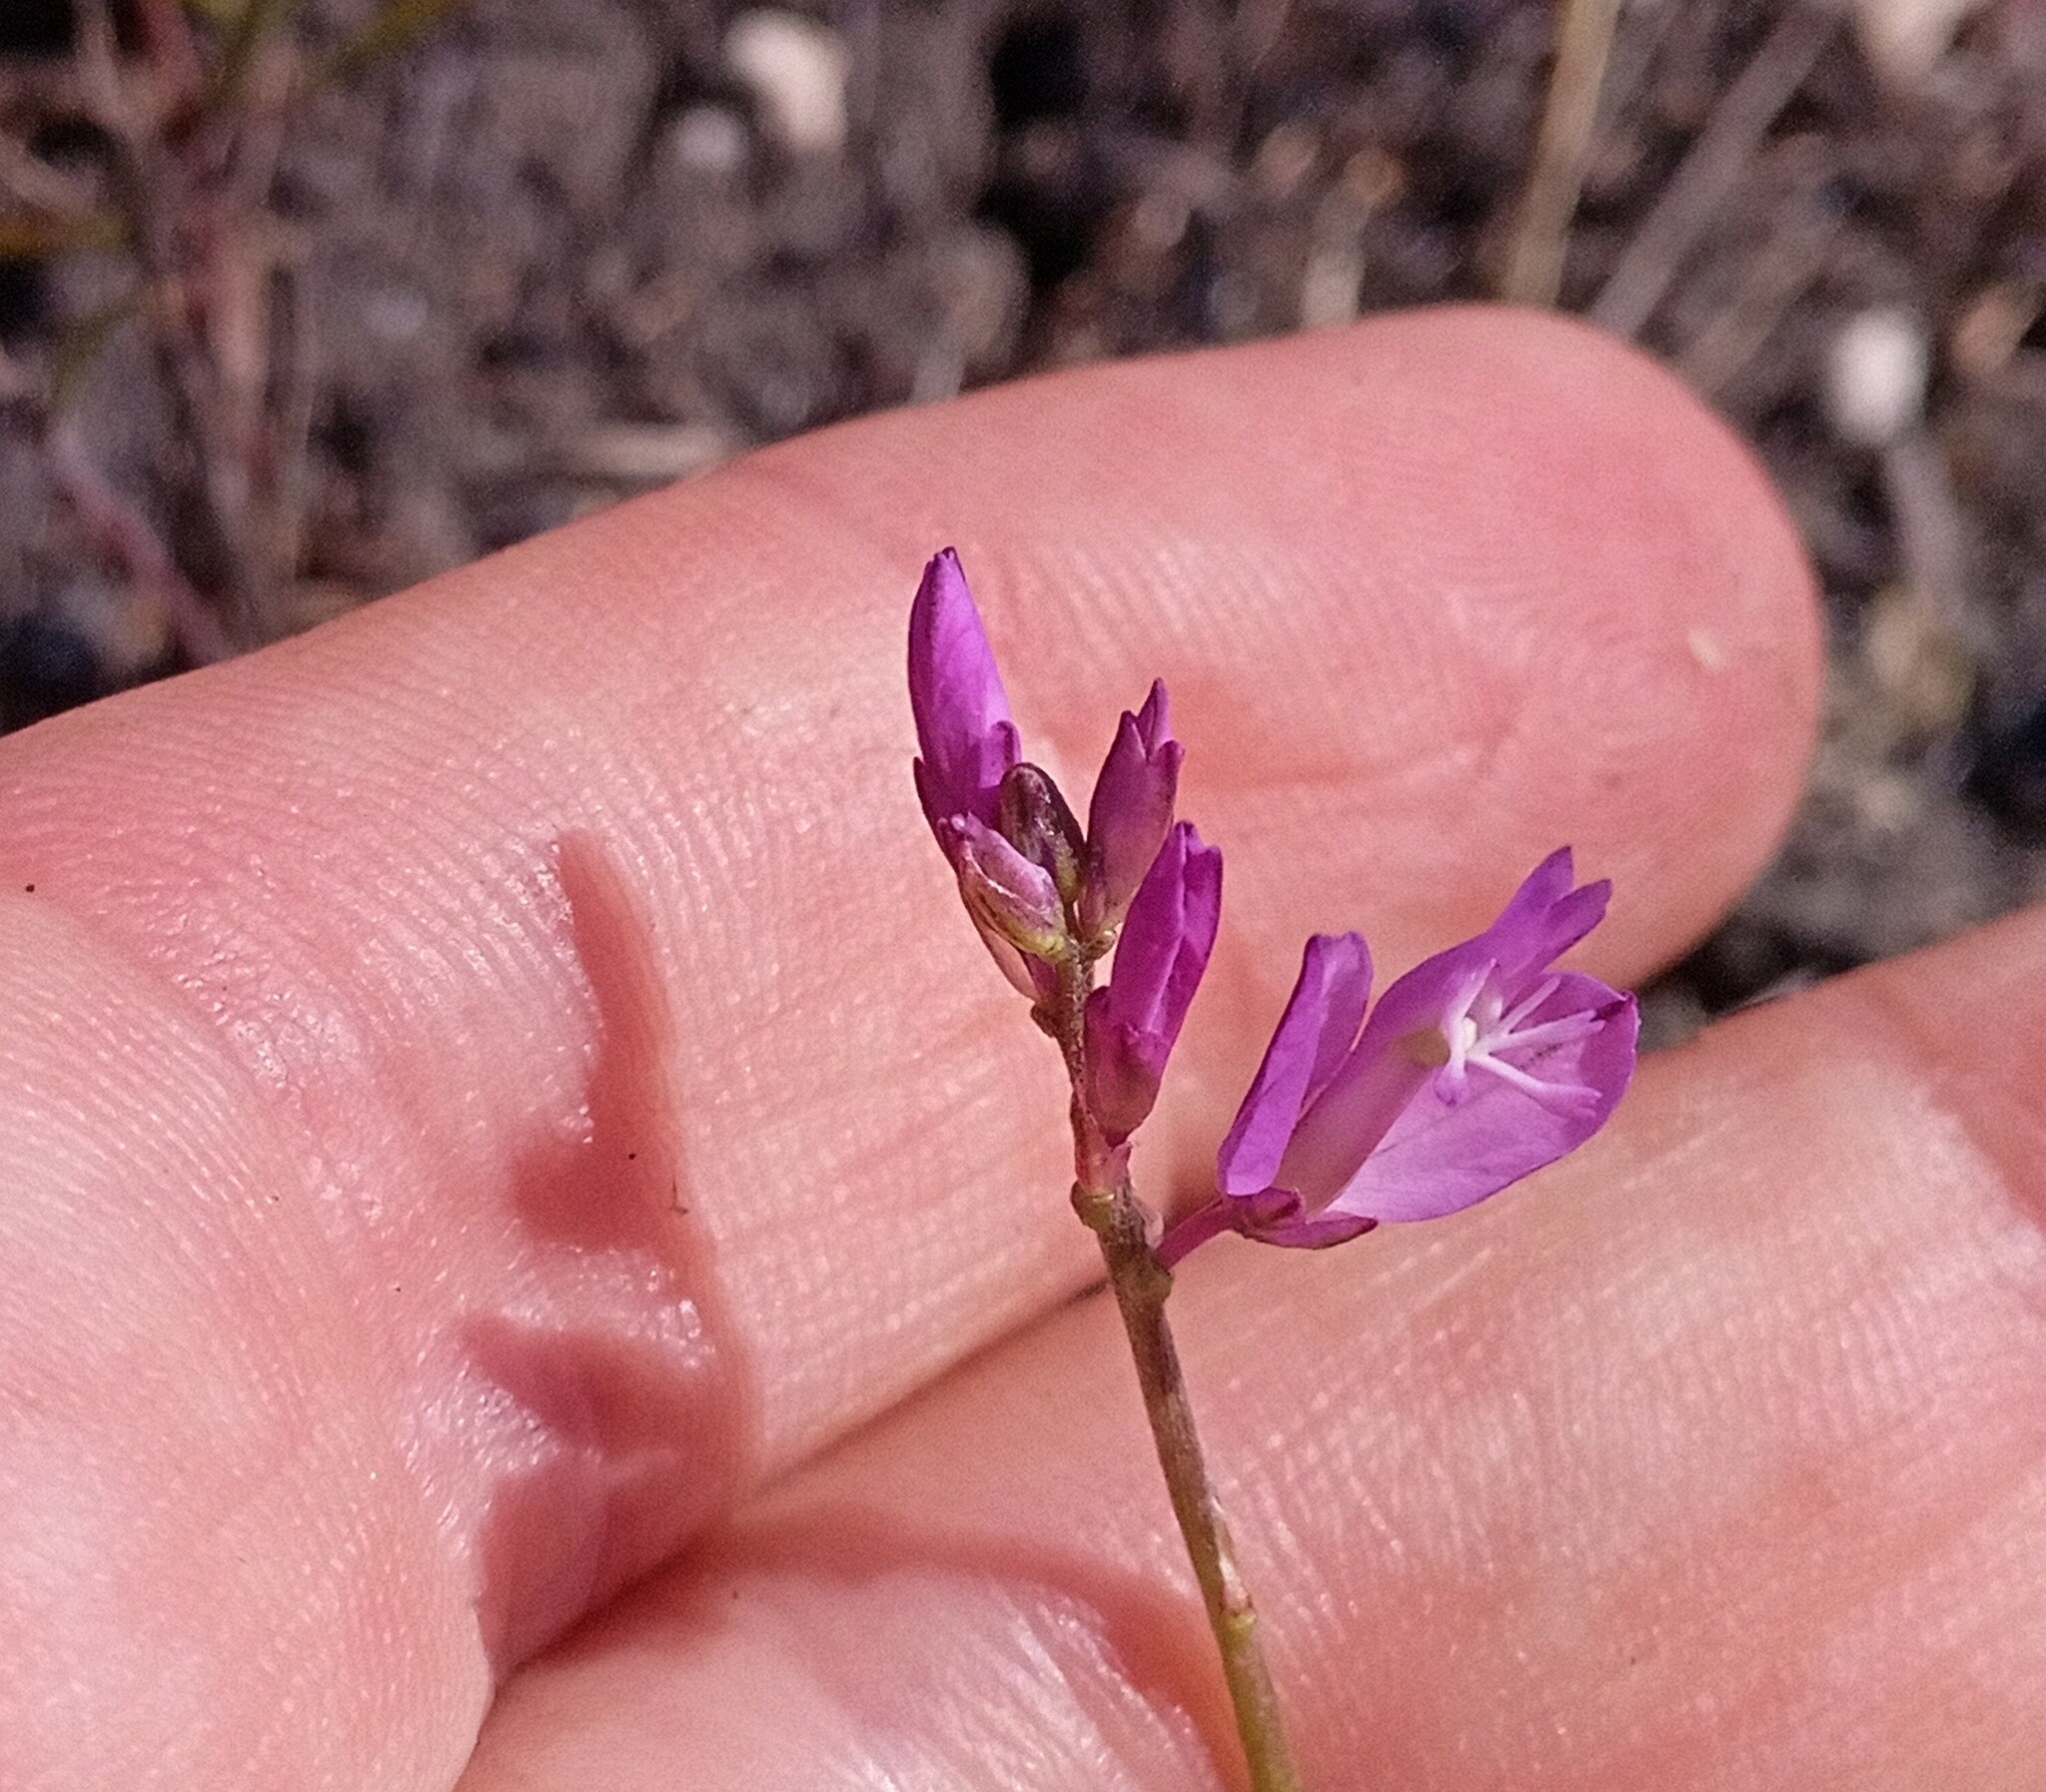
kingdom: Plantae
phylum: Tracheophyta
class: Magnoliopsida
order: Fabales
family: Polygalaceae
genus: Polygala
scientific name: Polygala sibirica
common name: Siberian polygala
